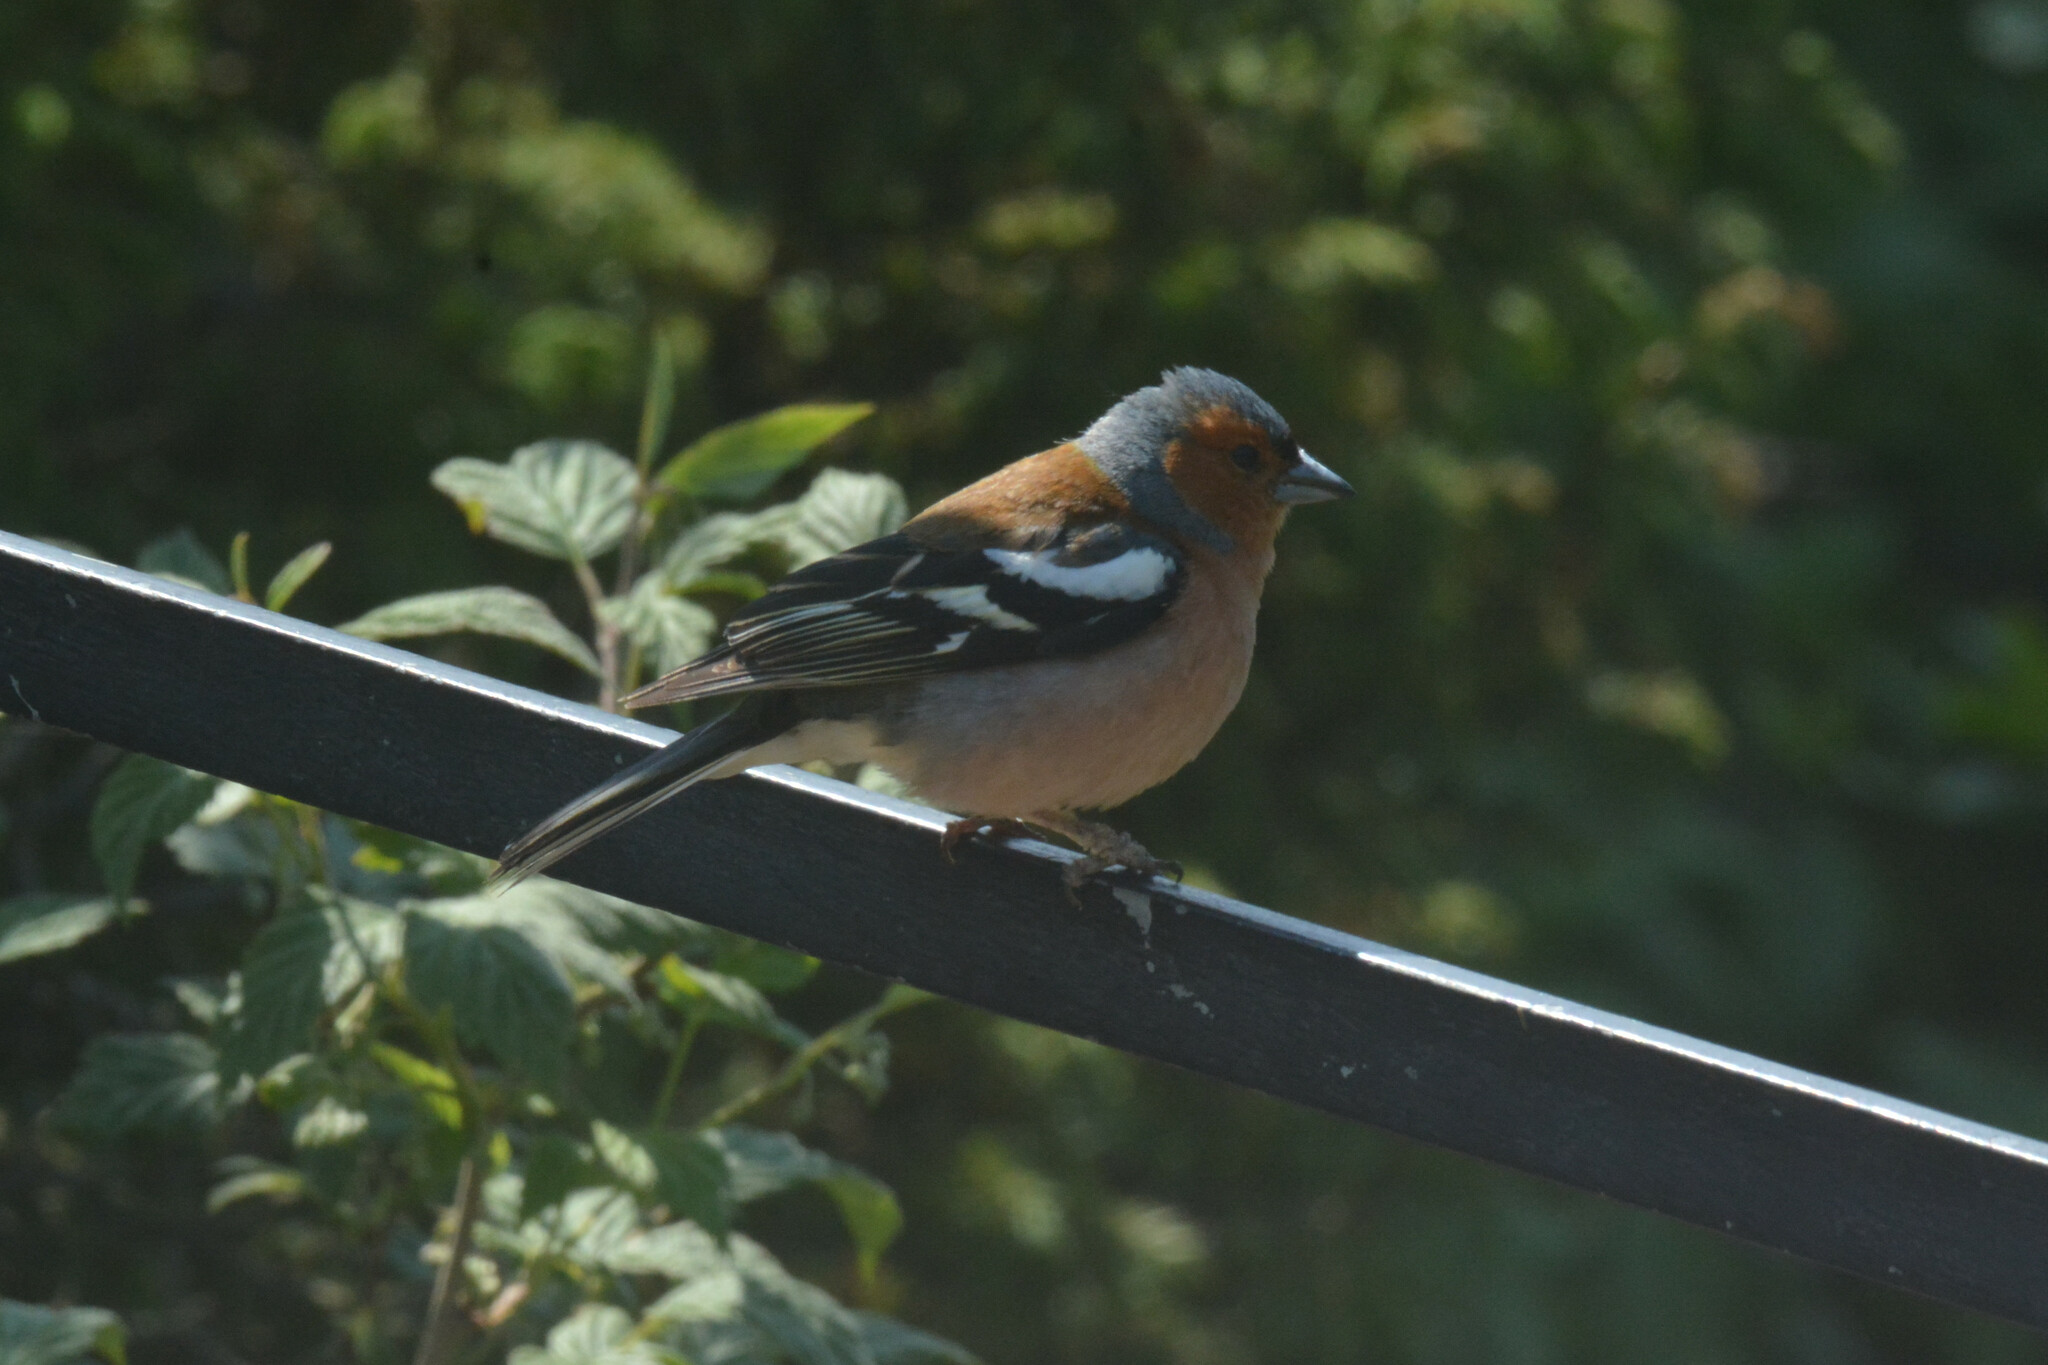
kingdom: Animalia
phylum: Chordata
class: Aves
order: Passeriformes
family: Fringillidae
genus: Fringilla
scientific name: Fringilla coelebs
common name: Common chaffinch
